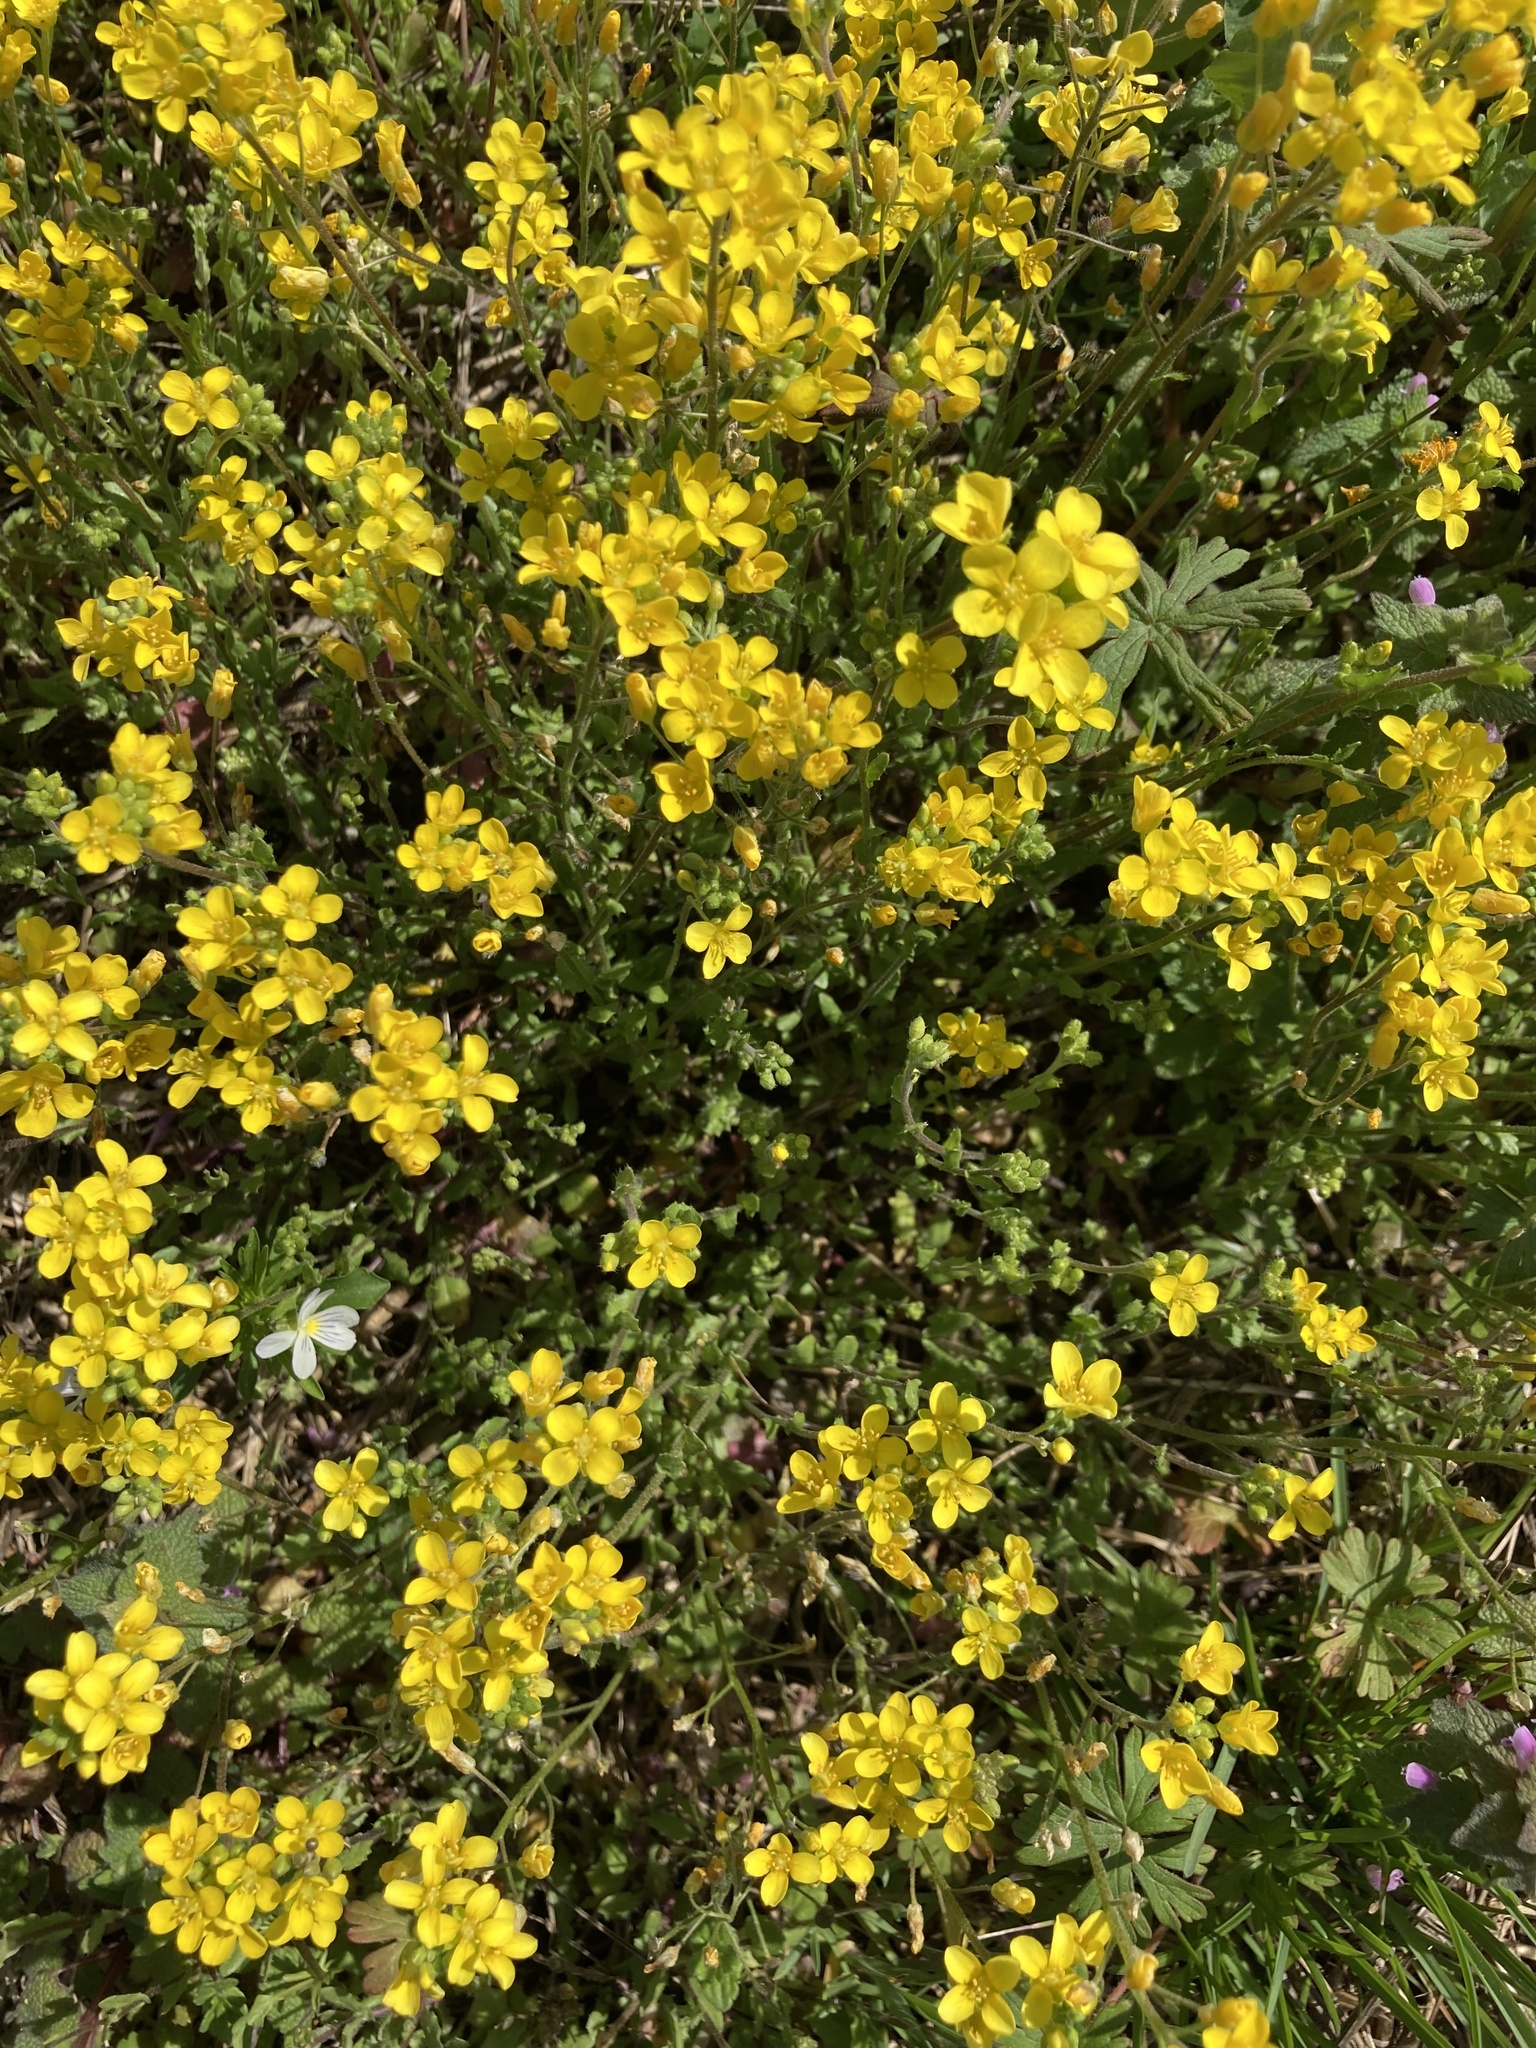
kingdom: Plantae
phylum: Tracheophyta
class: Magnoliopsida
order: Brassicales
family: Brassicaceae
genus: Paysonia
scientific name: Paysonia lescurii
